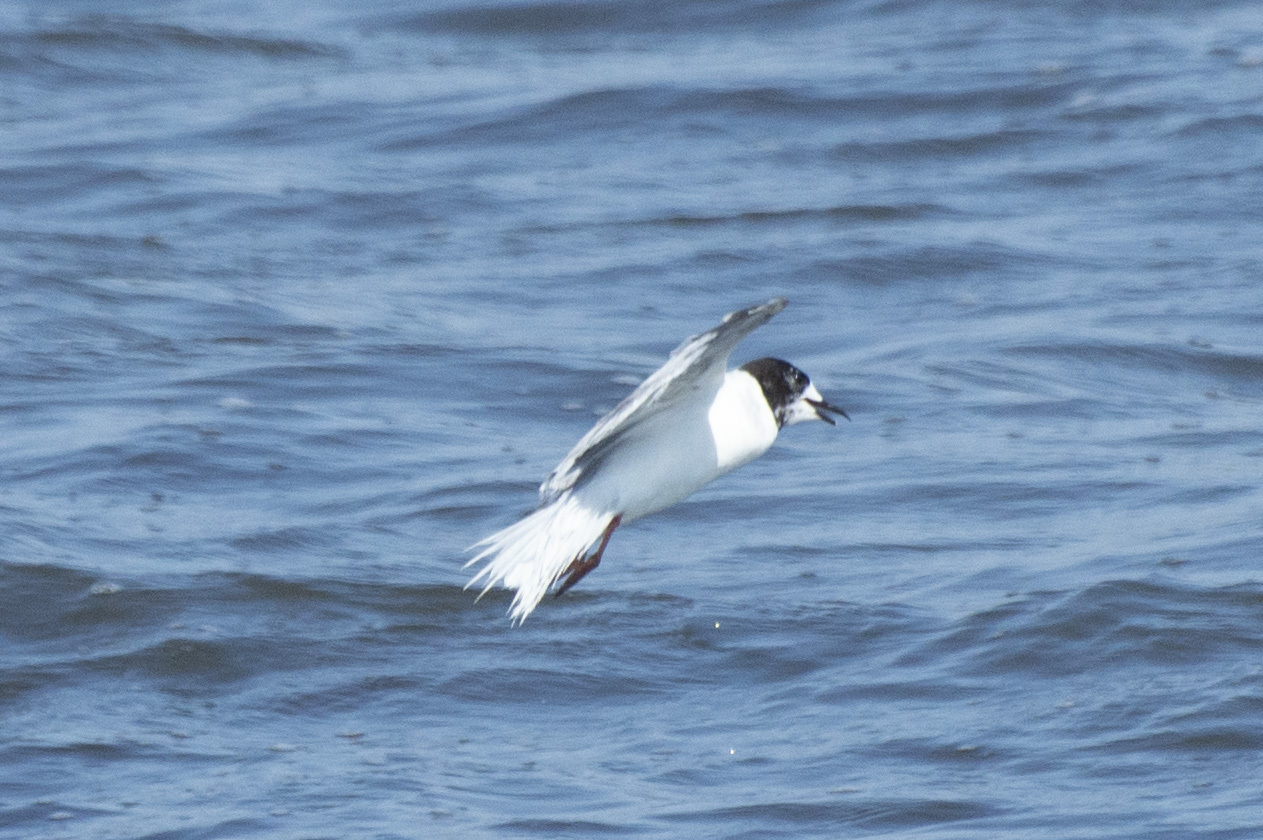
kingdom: Animalia
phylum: Chordata
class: Aves
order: Charadriiformes
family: Laridae
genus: Hydrocoloeus
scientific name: Hydrocoloeus minutus
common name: Little gull
